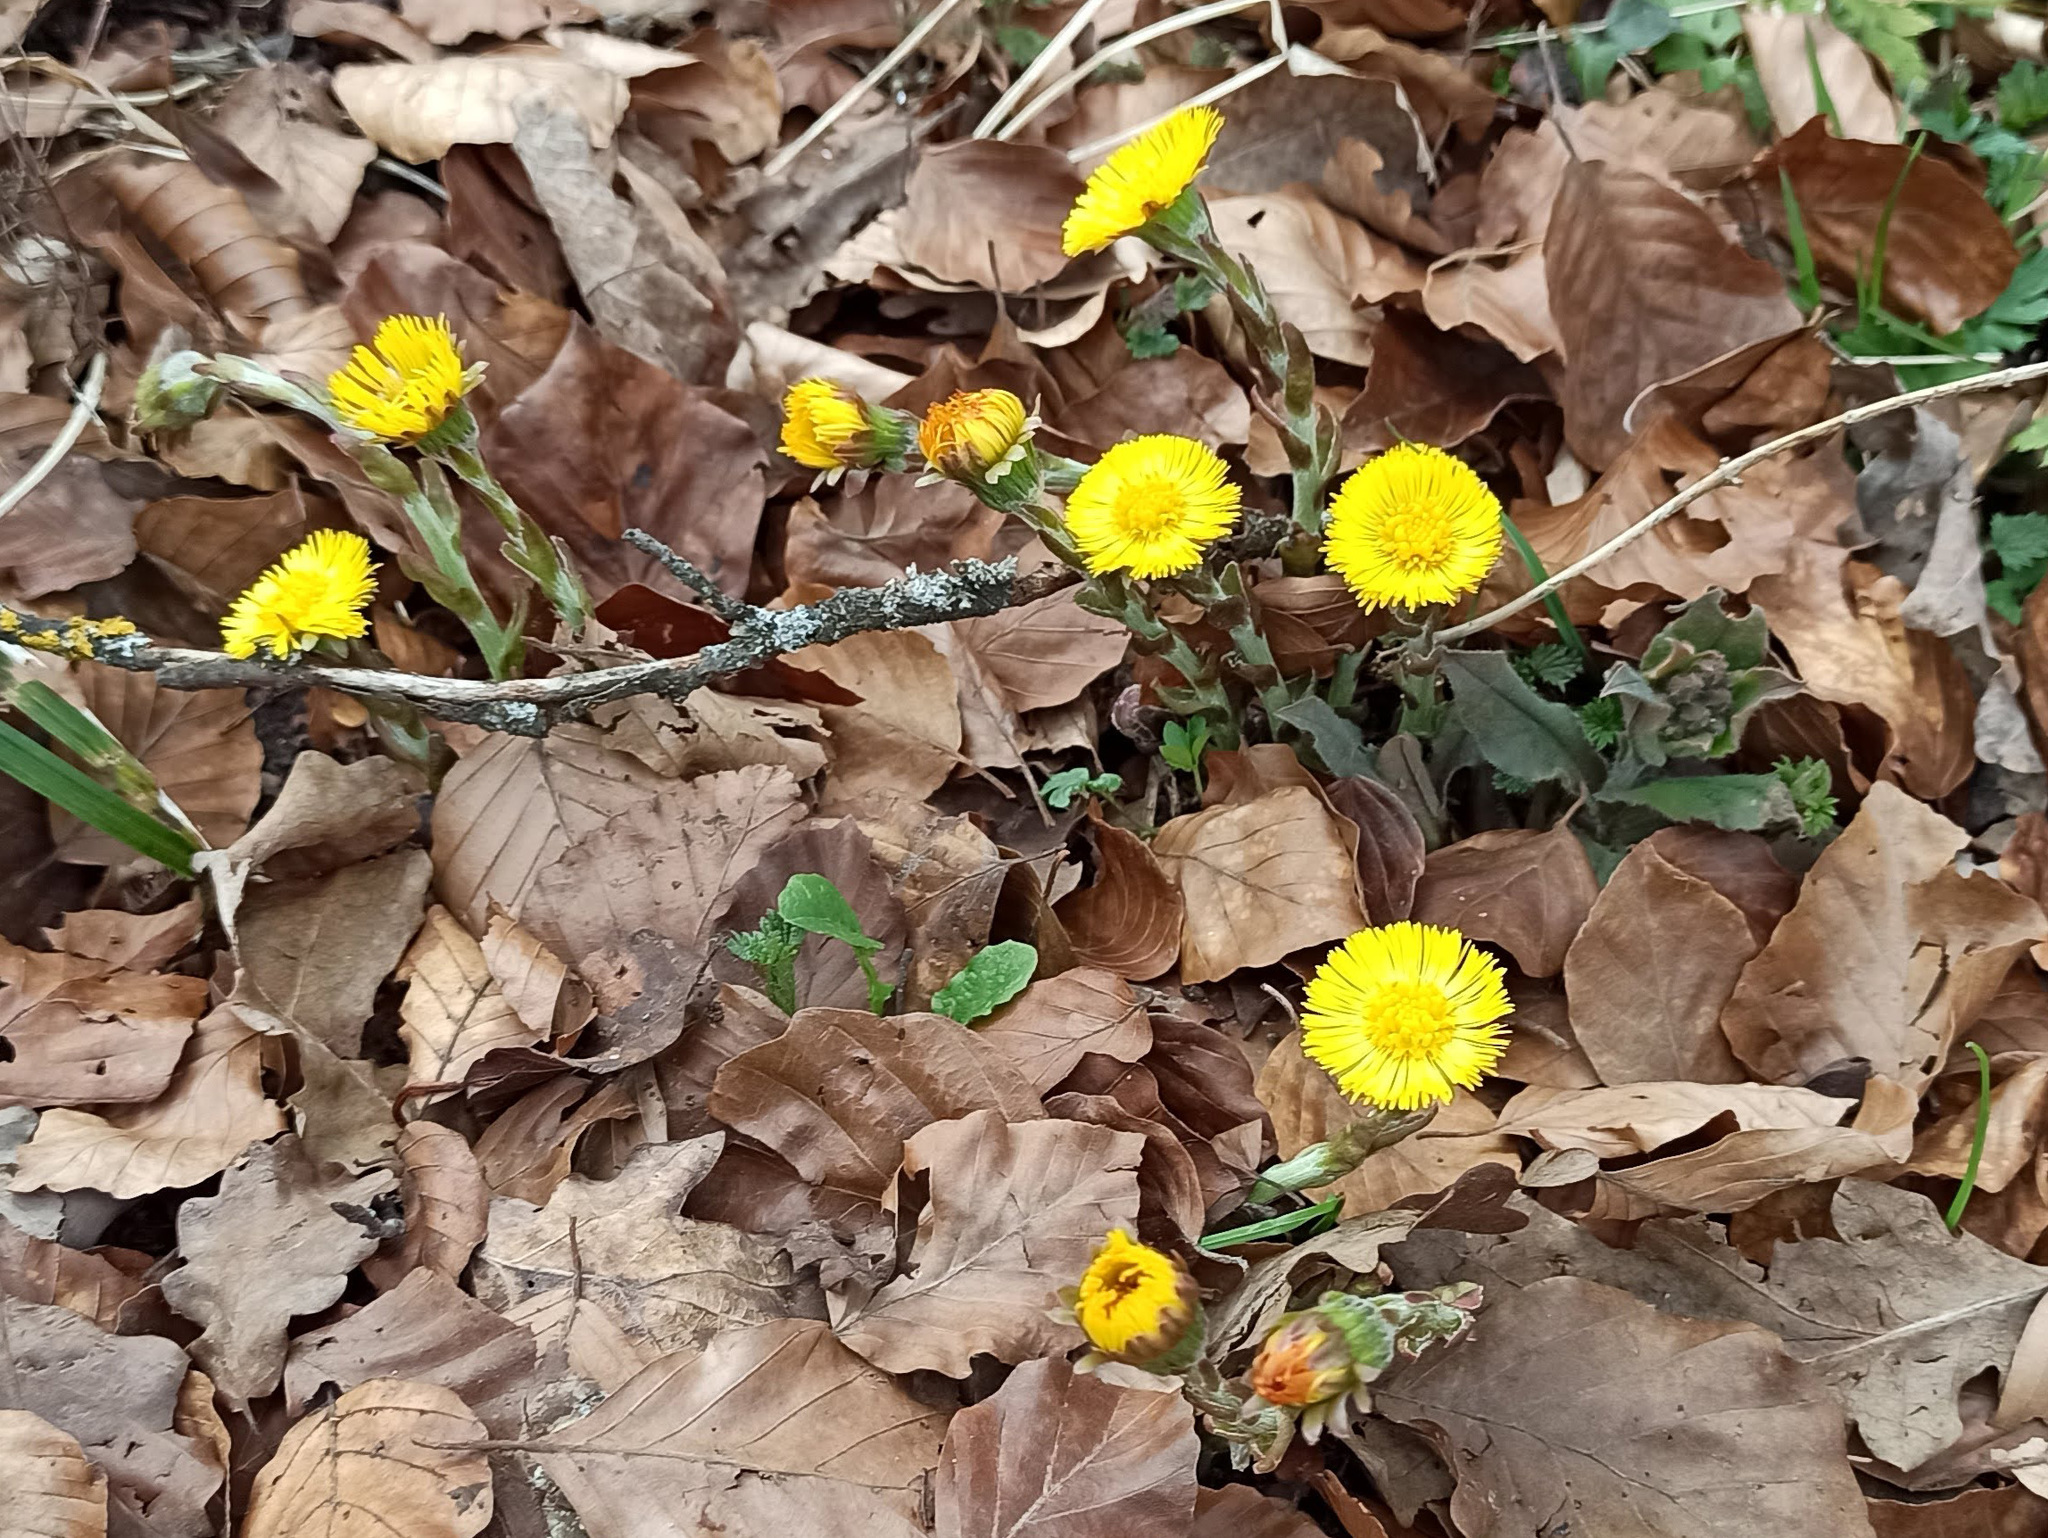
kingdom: Plantae
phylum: Tracheophyta
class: Magnoliopsida
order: Asterales
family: Asteraceae
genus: Tussilago
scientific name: Tussilago farfara
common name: Coltsfoot
